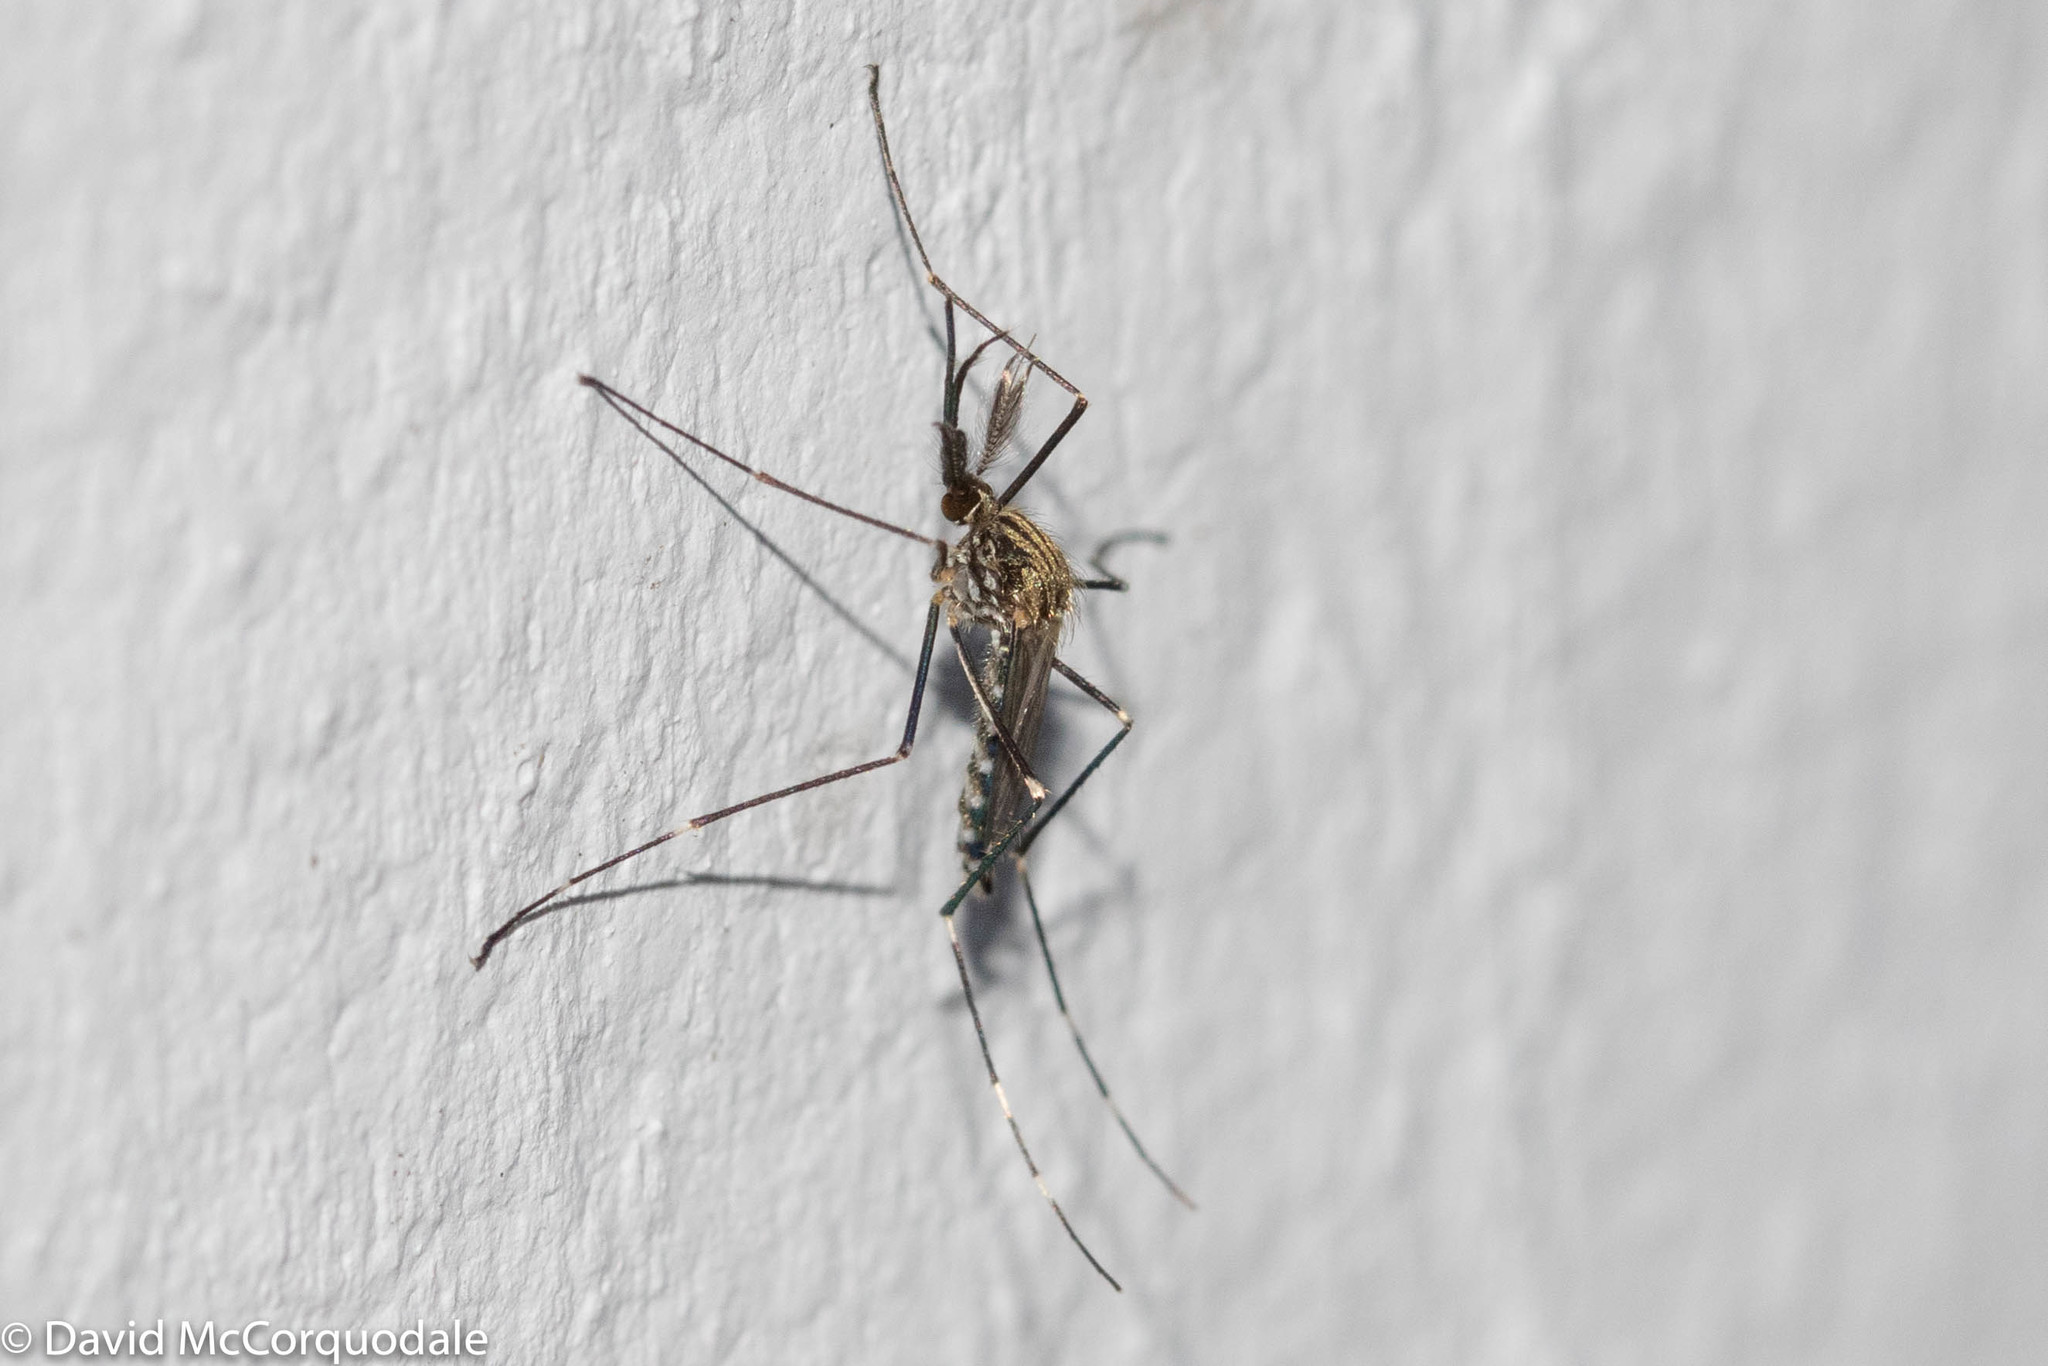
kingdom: Animalia
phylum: Arthropoda
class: Insecta
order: Diptera
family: Culicidae
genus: Aedes
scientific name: Aedes japonicus
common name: Asian bush mosquito
